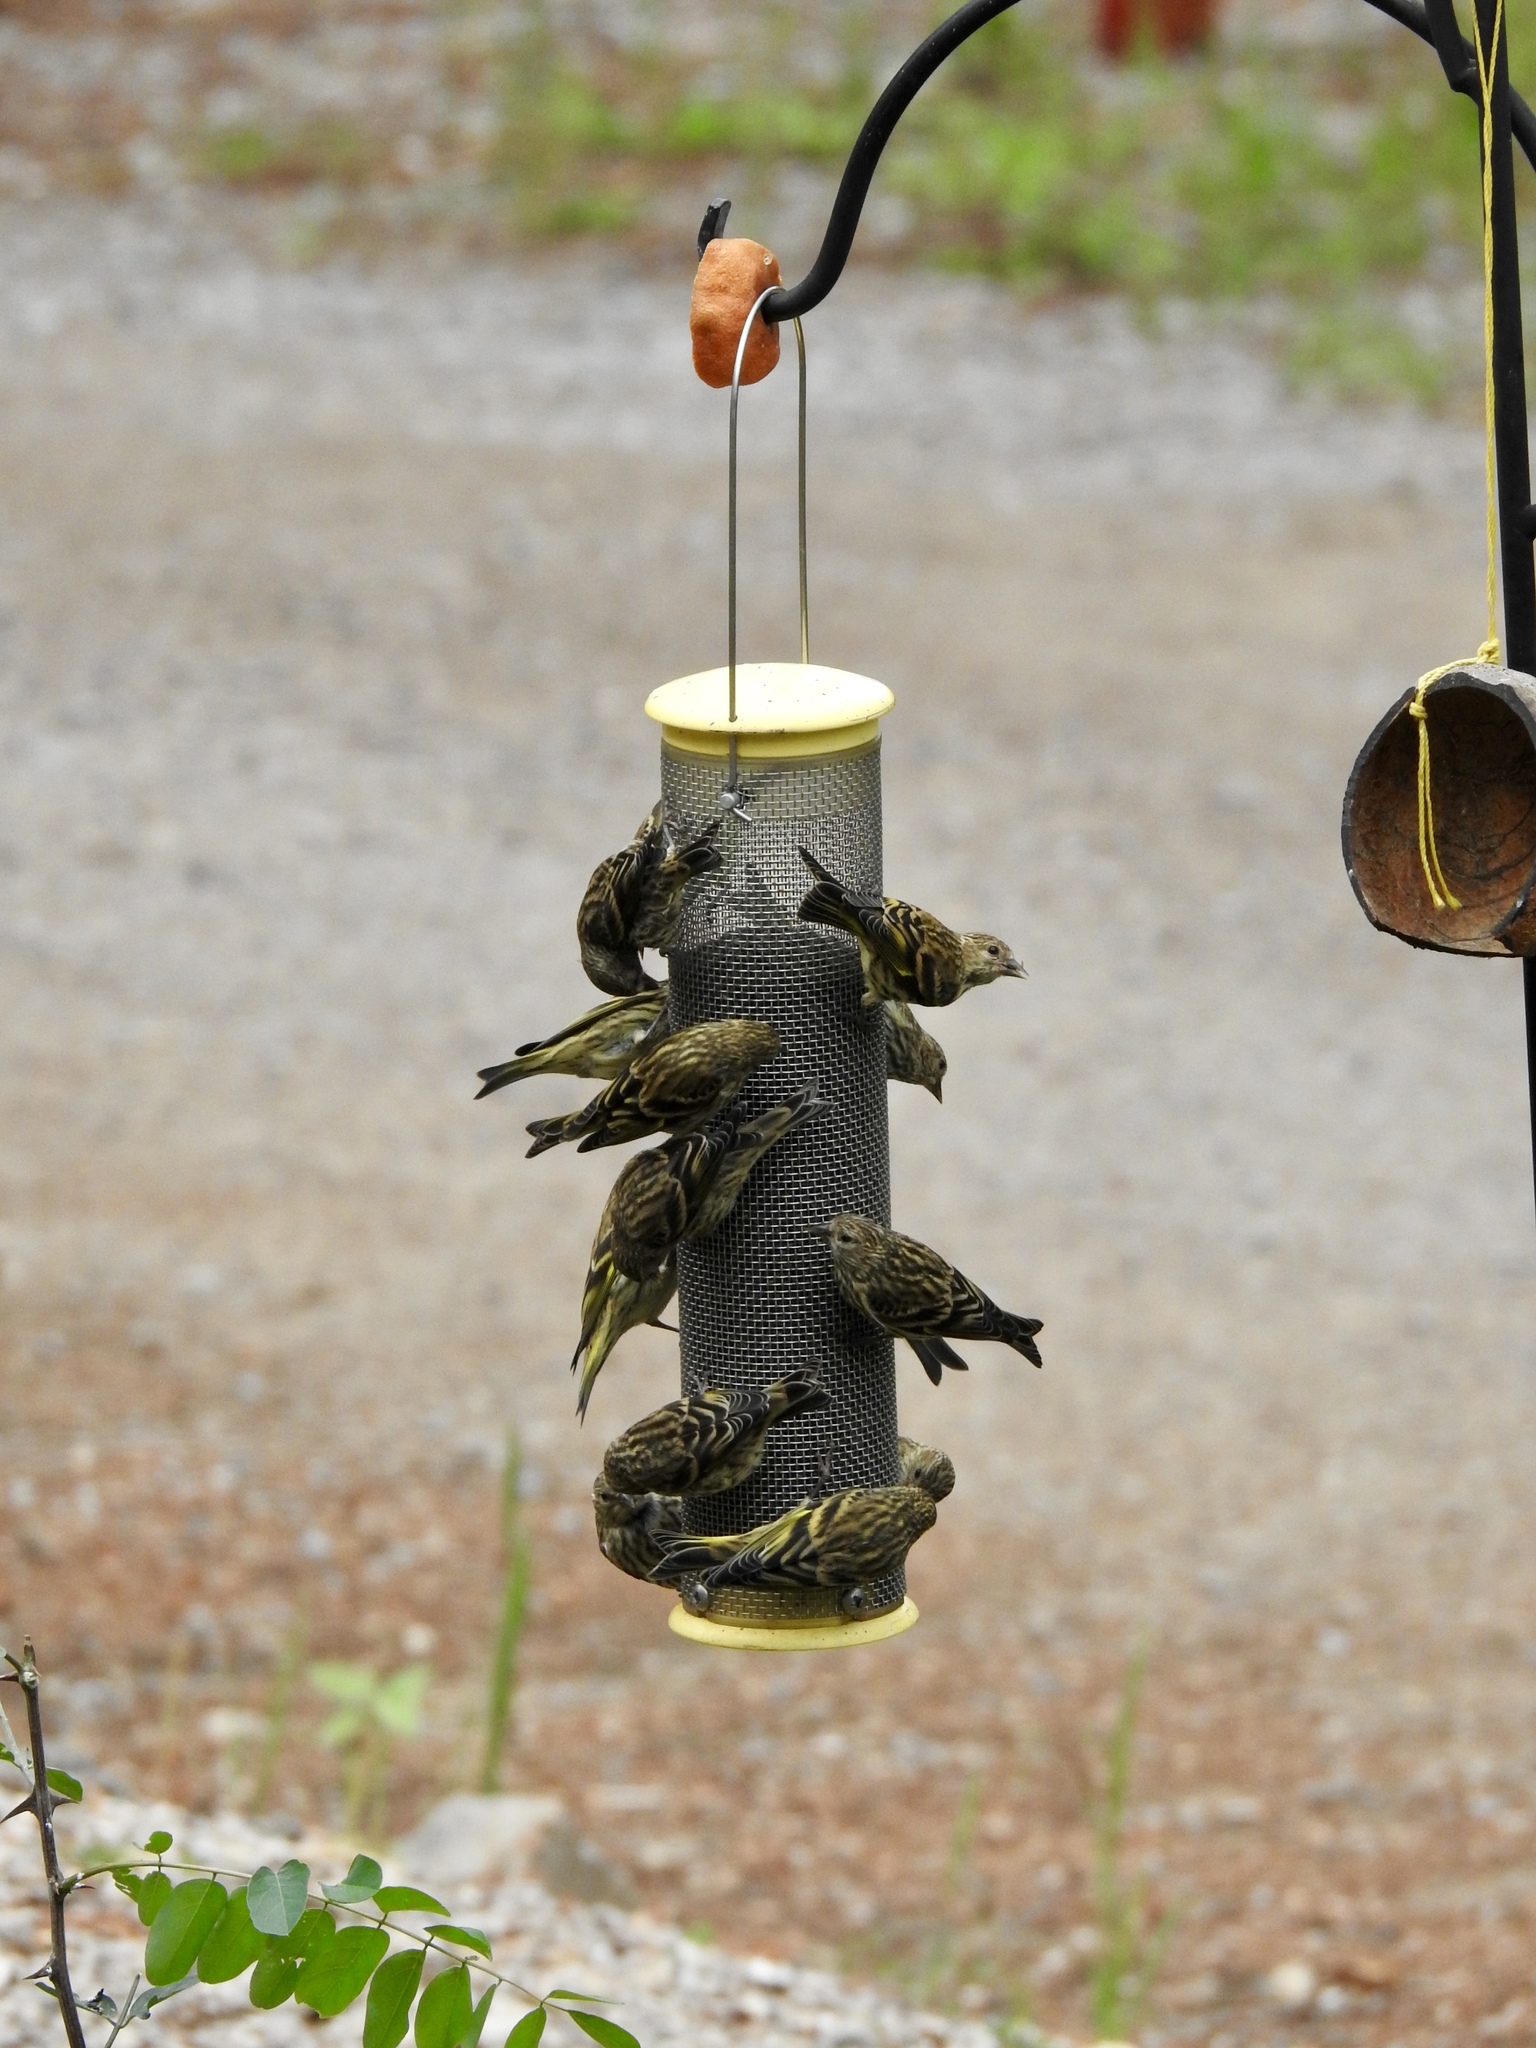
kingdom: Animalia
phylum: Chordata
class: Aves
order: Passeriformes
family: Fringillidae
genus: Spinus
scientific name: Spinus pinus
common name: Pine siskin
